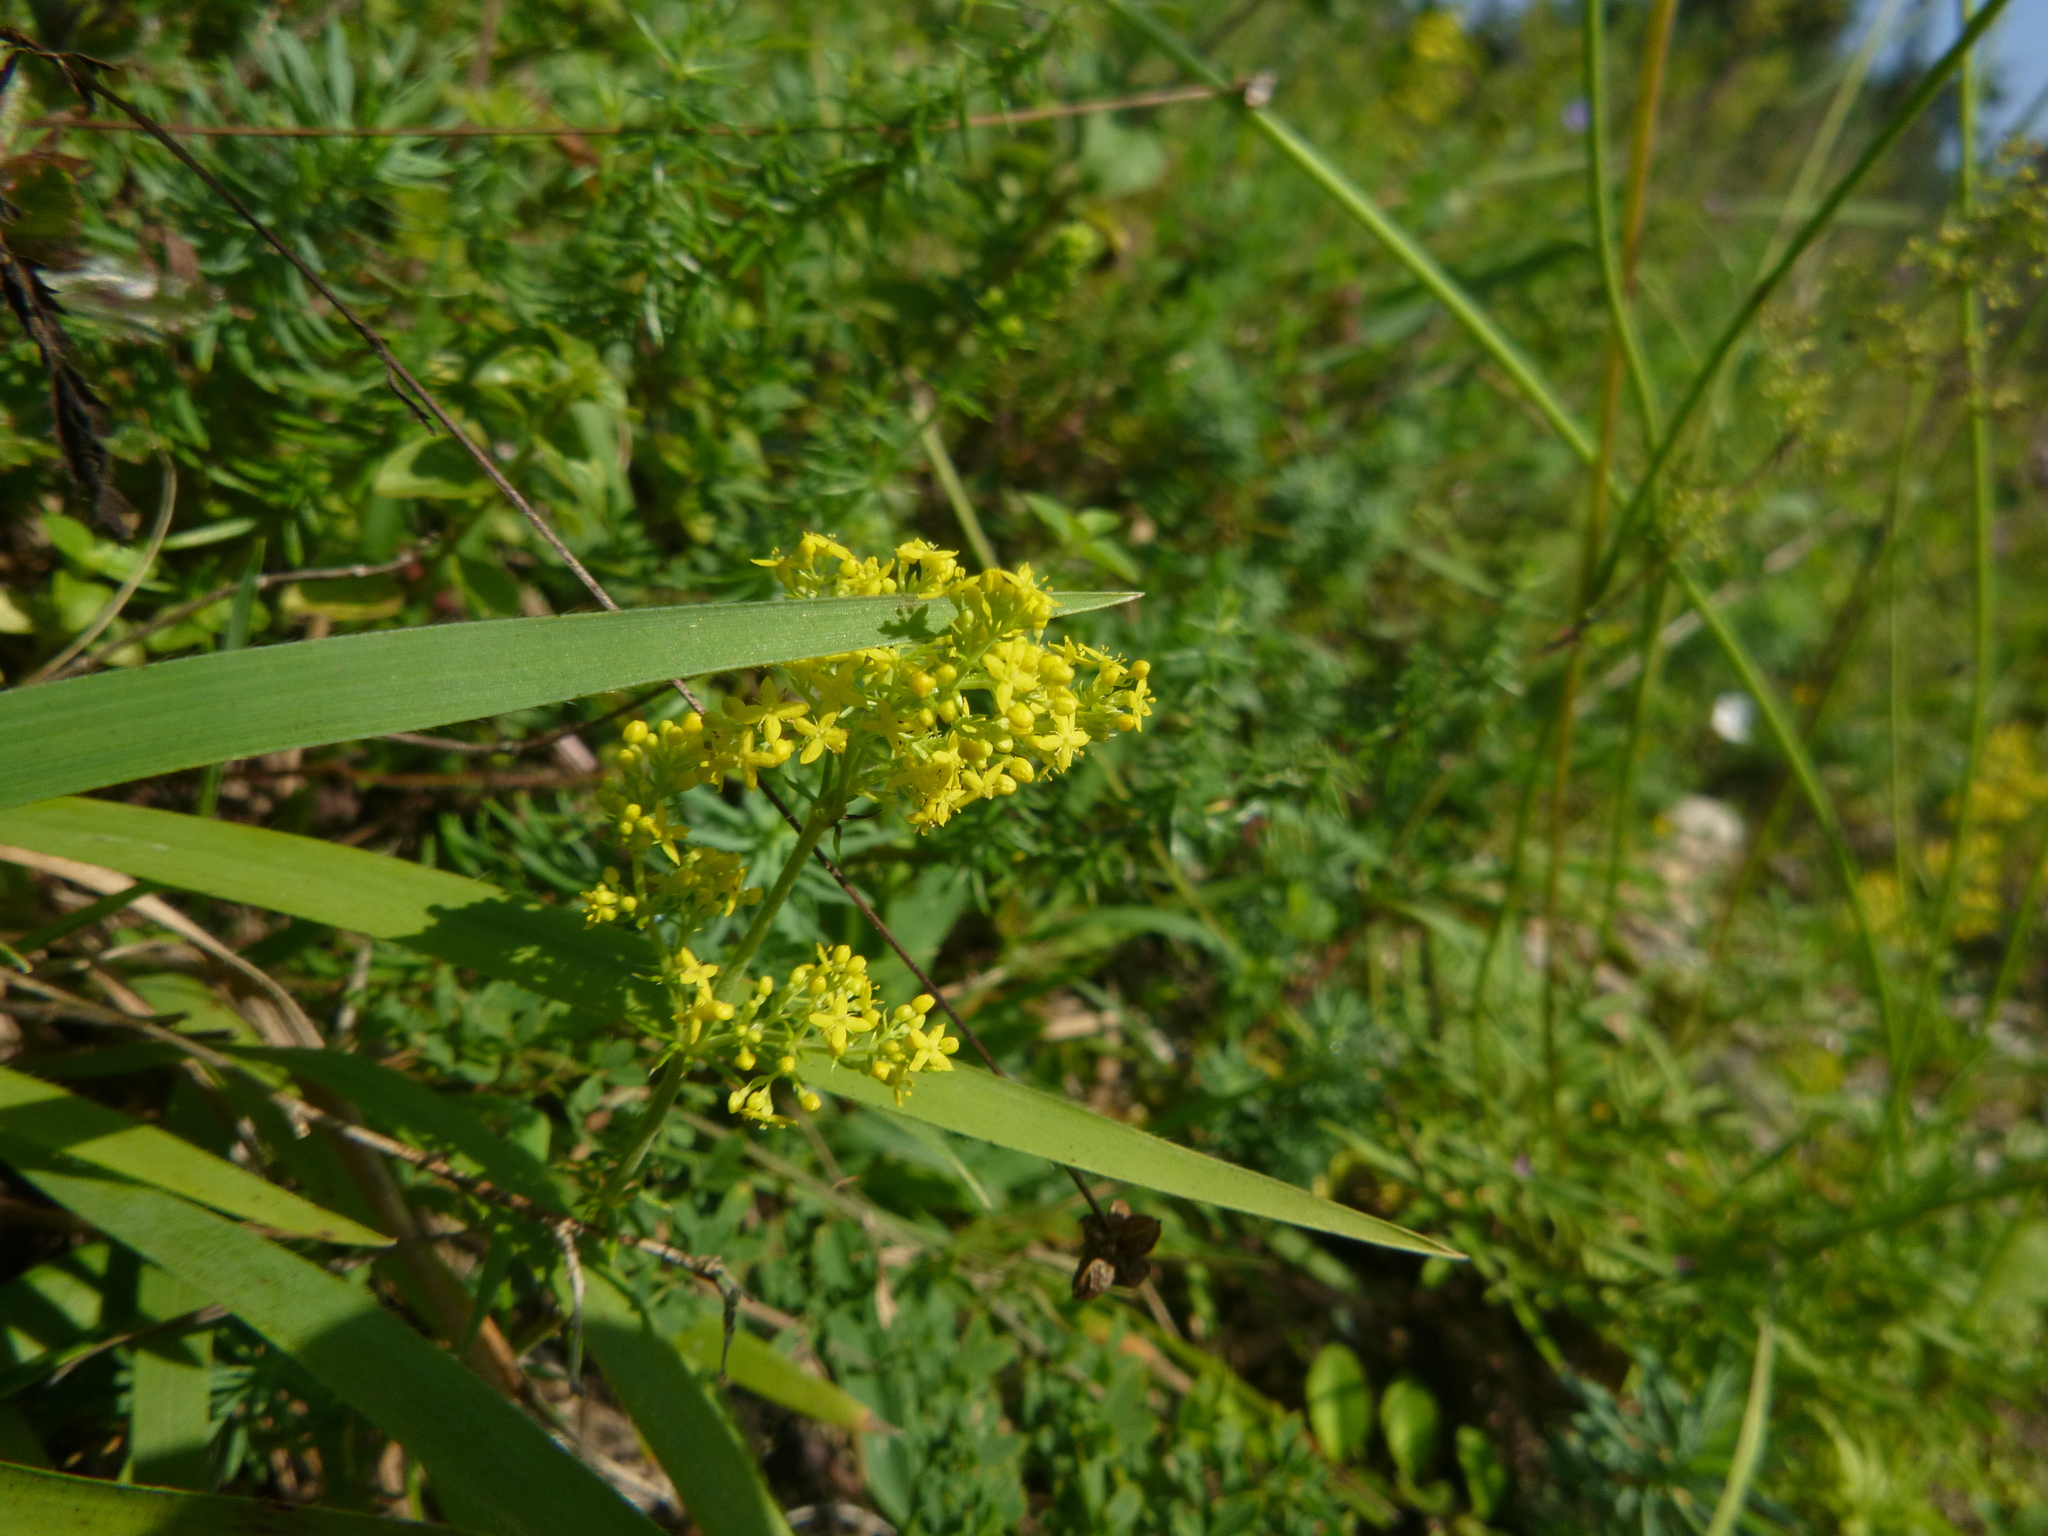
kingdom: Plantae
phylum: Tracheophyta
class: Magnoliopsida
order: Gentianales
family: Rubiaceae
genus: Galium
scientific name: Galium verum
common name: Lady's bedstraw
